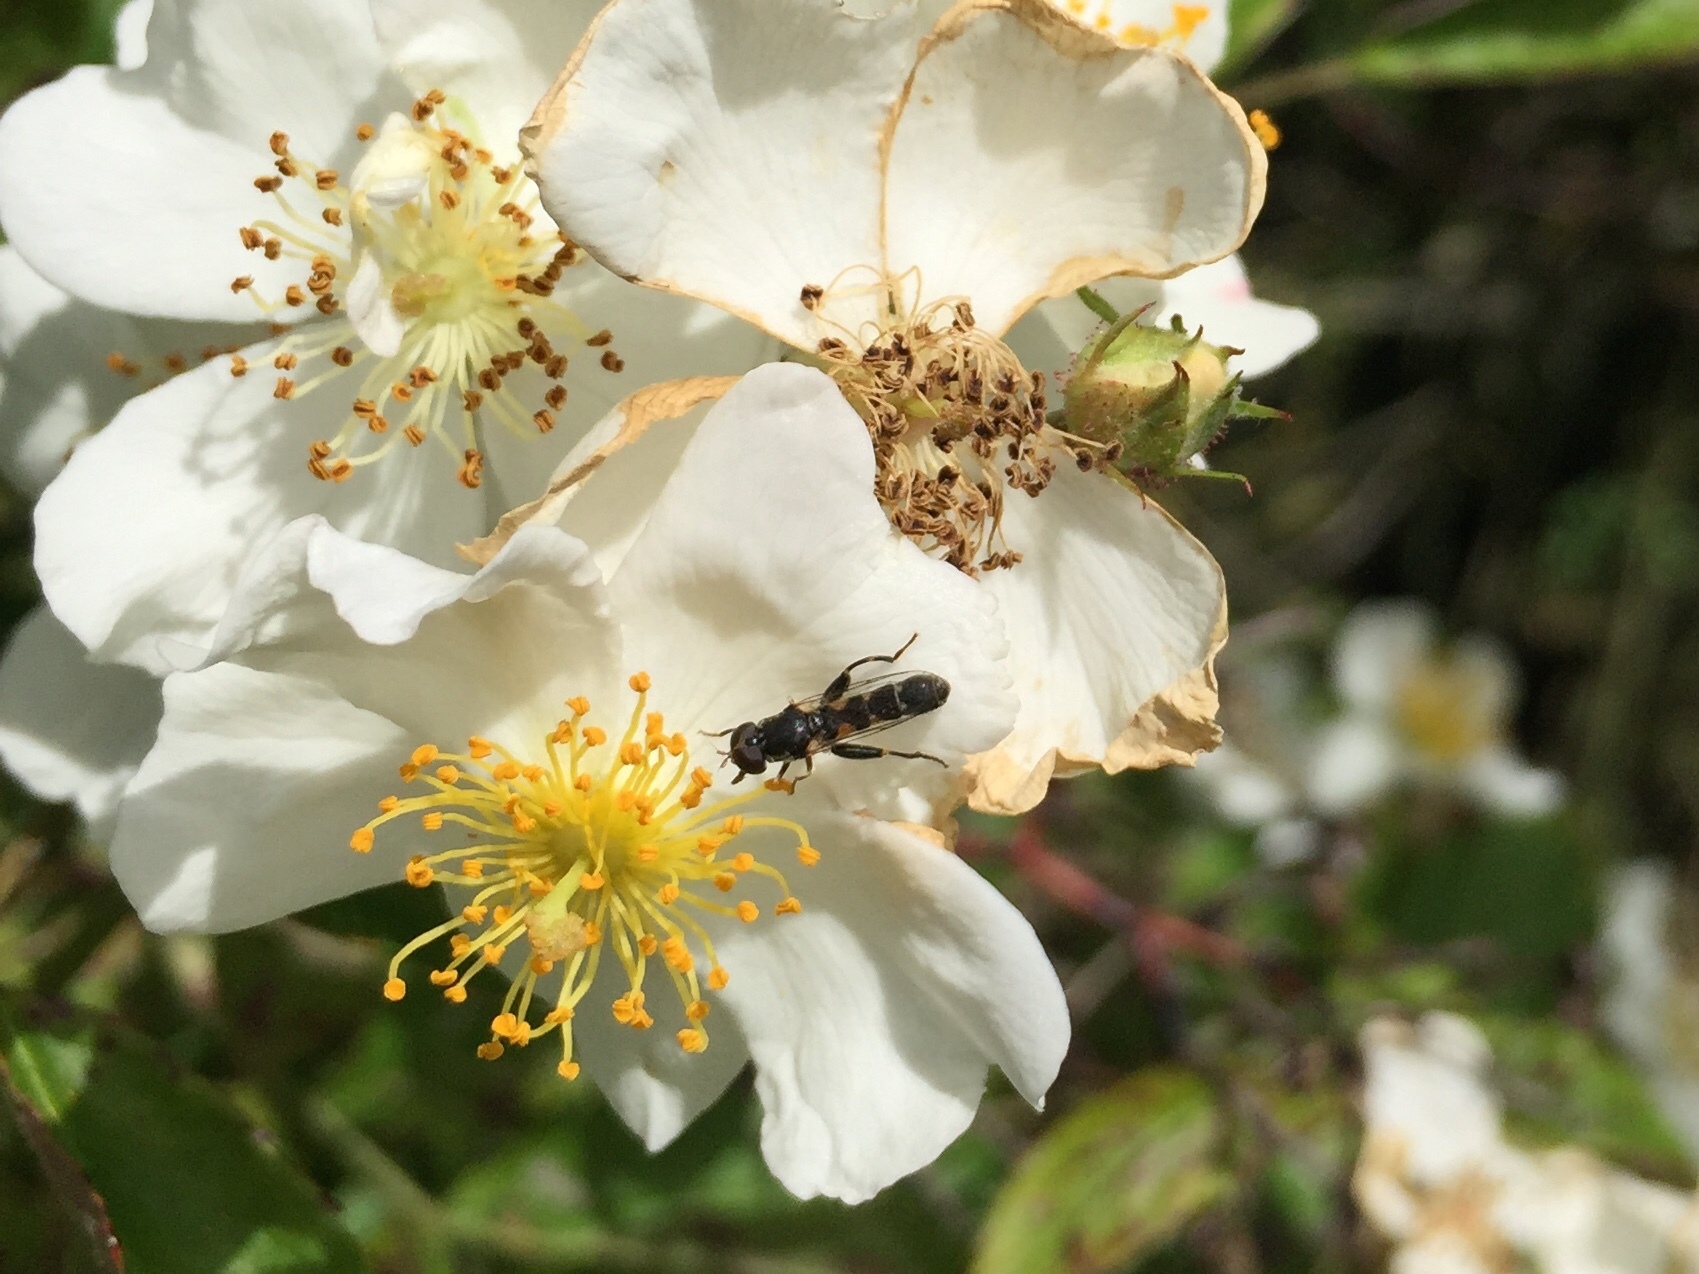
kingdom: Animalia
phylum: Arthropoda
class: Insecta
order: Diptera
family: Syrphidae
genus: Syritta
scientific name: Syritta pipiens
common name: Hover fly
